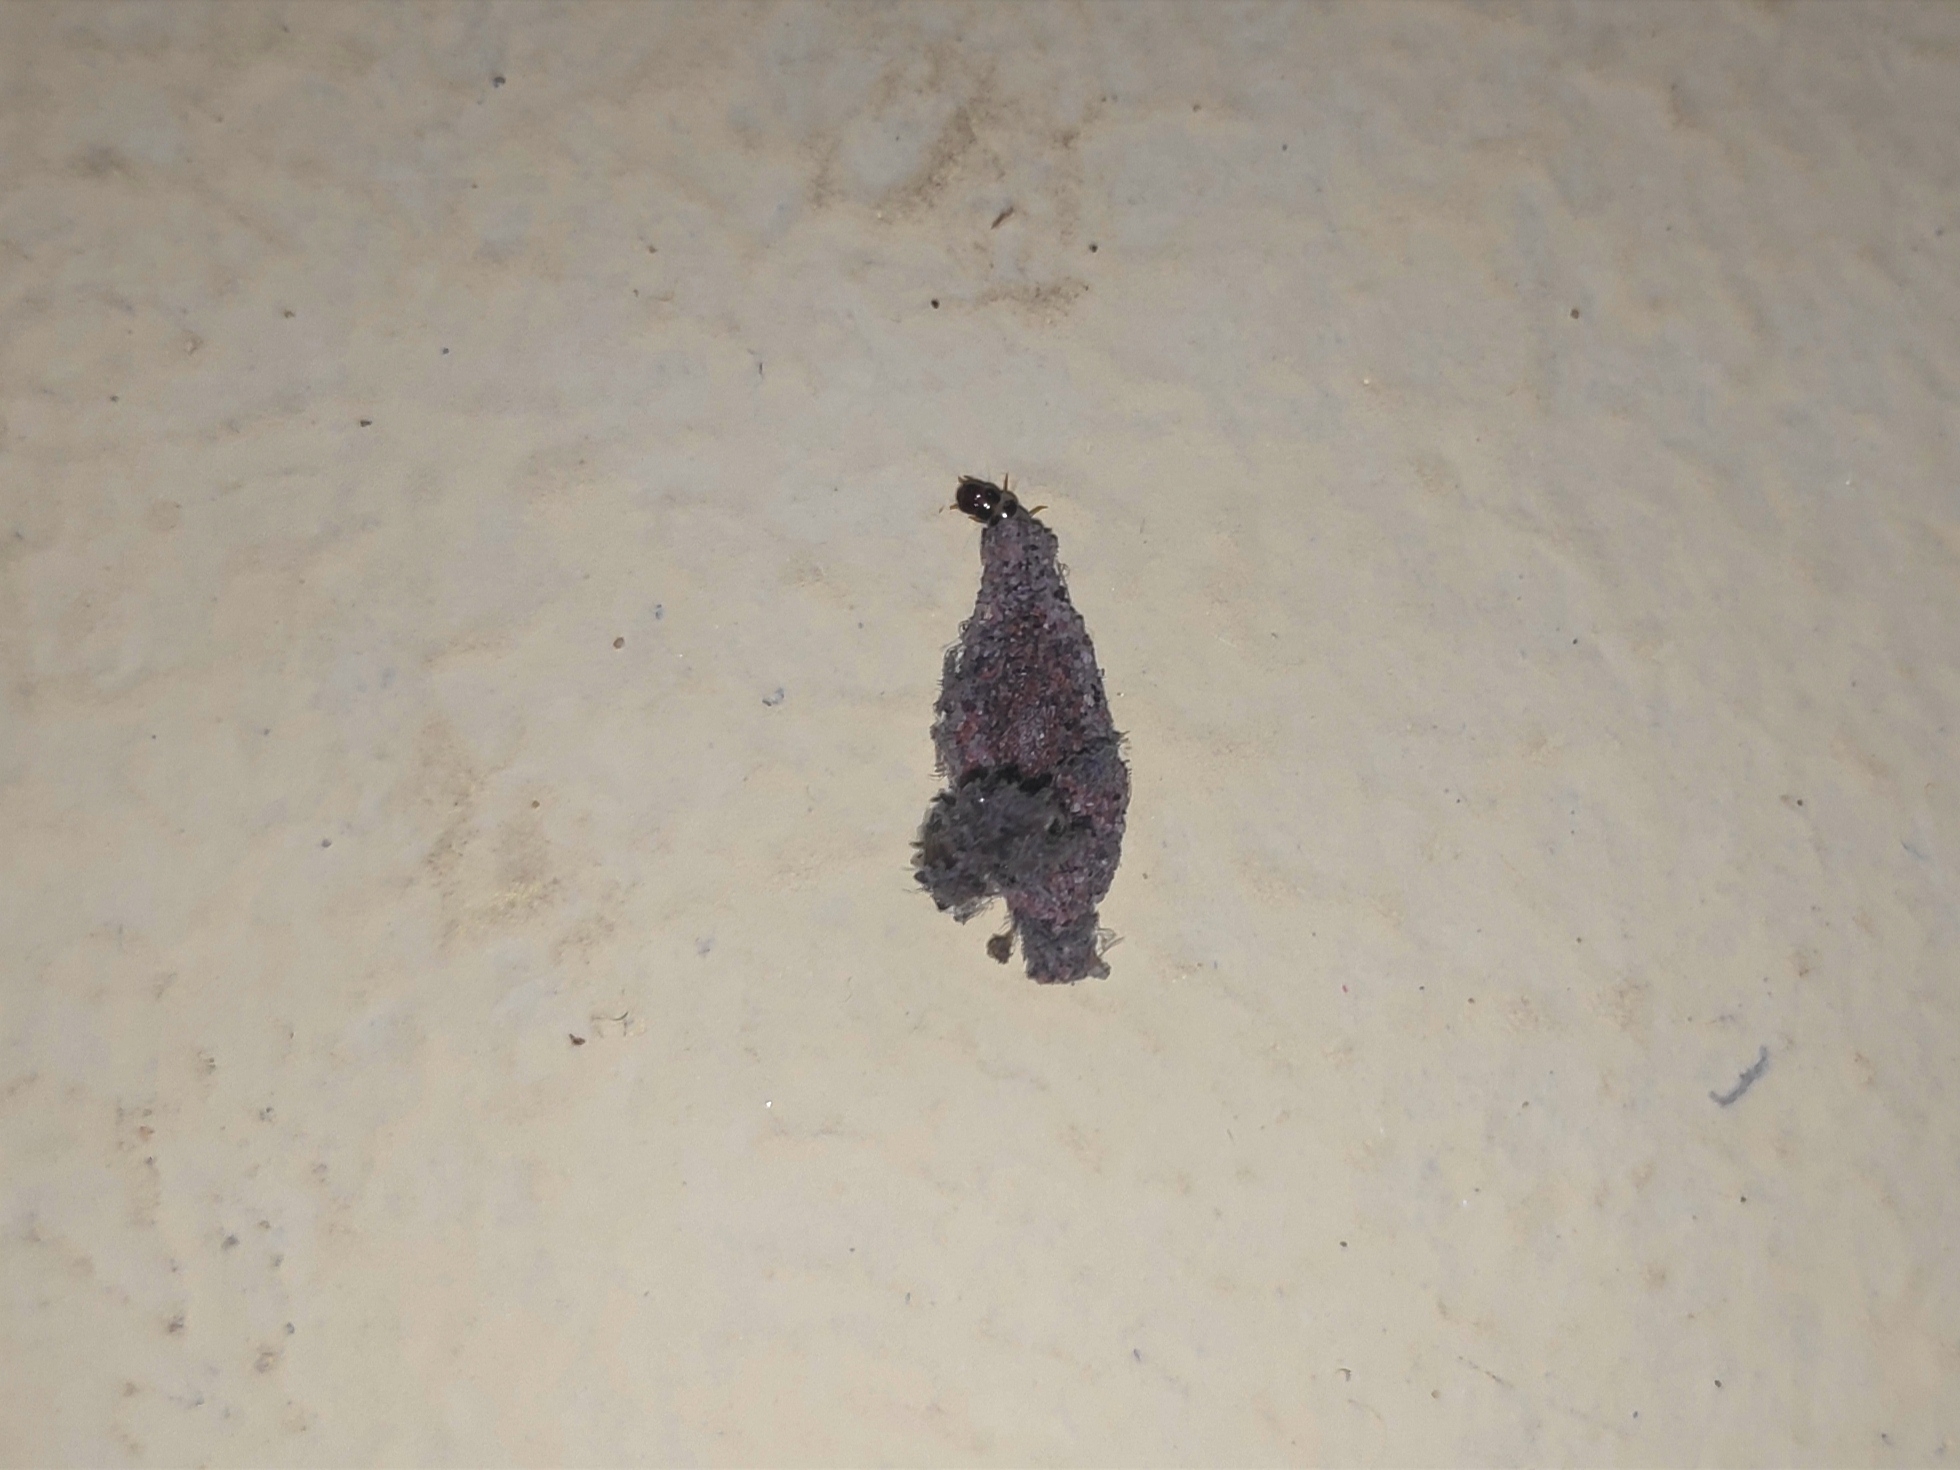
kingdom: Animalia
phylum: Arthropoda
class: Insecta
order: Lepidoptera
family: Tineidae
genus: Phereoeca
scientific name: Phereoeca uterella
